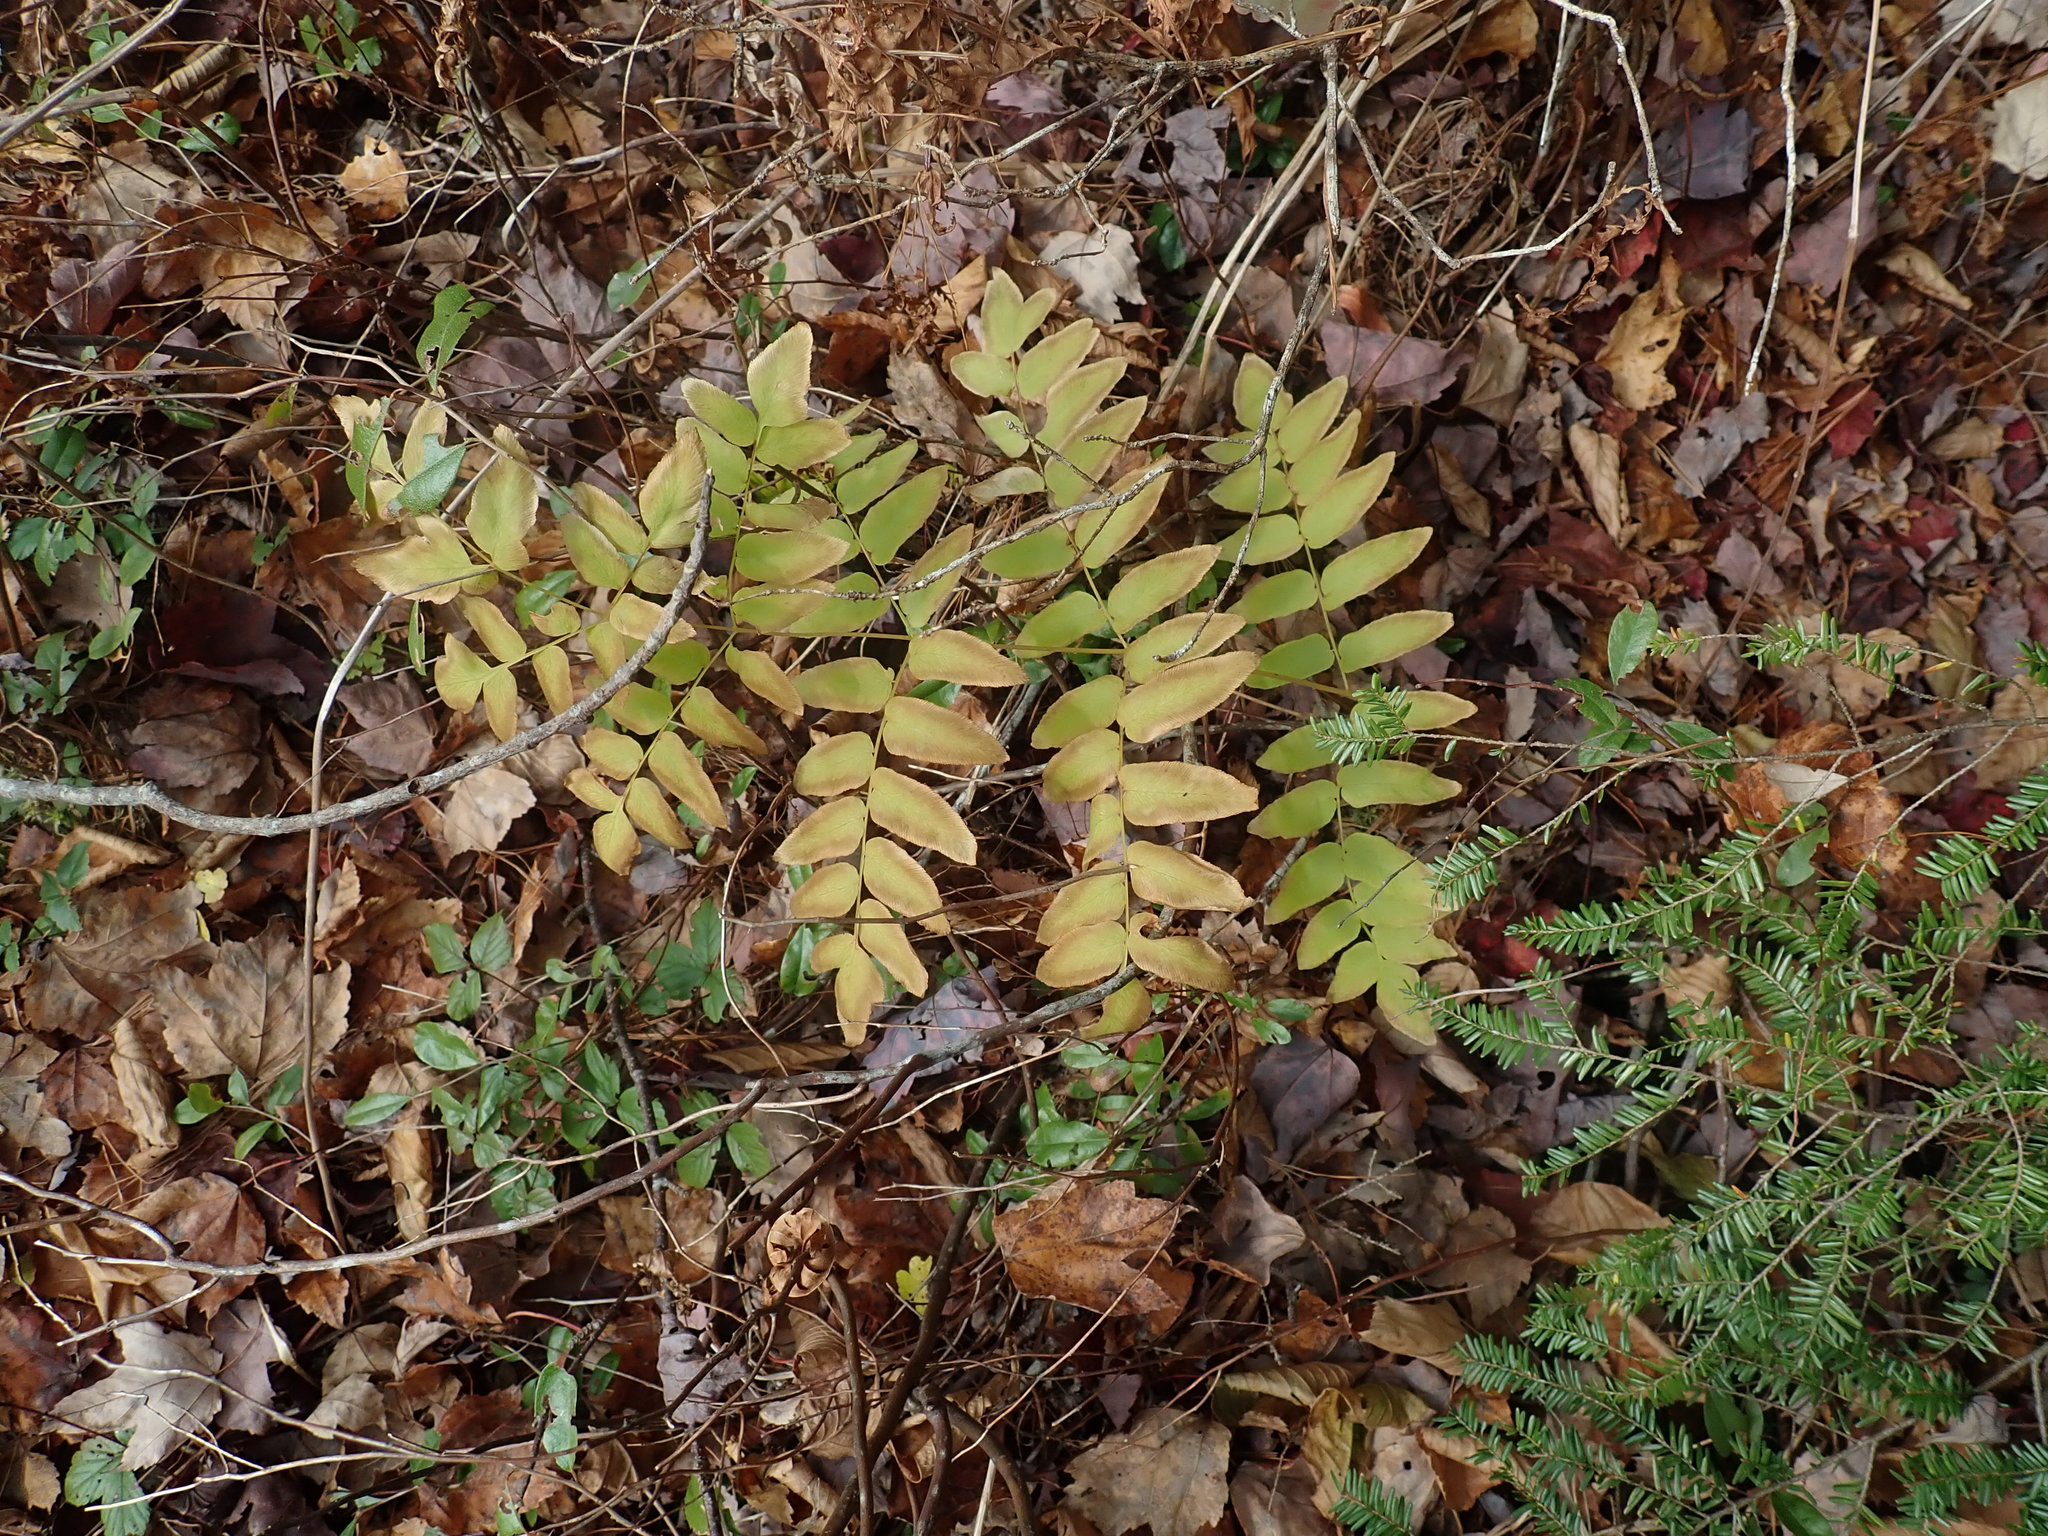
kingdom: Plantae
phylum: Tracheophyta
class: Polypodiopsida
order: Osmundales
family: Osmundaceae
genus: Osmunda
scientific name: Osmunda spectabilis
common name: American royal fern
